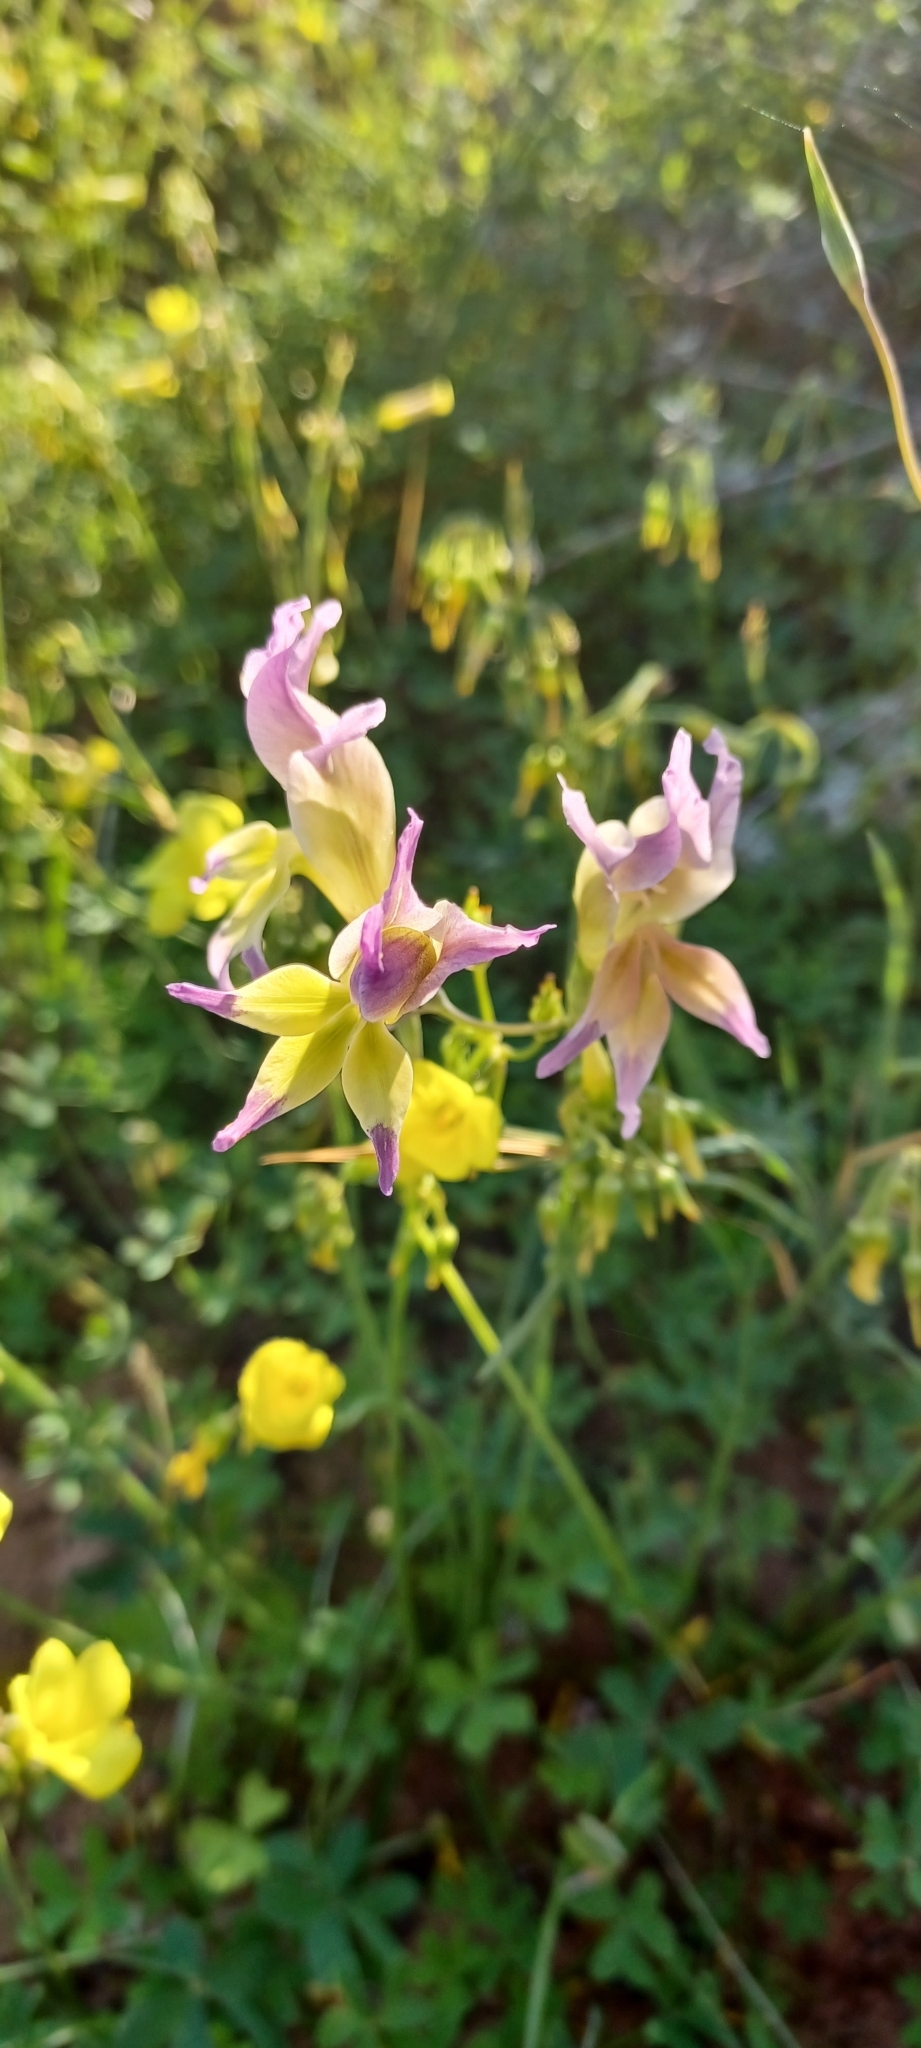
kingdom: Plantae
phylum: Tracheophyta
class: Liliopsida
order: Asparagales
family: Iridaceae
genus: Gladiolus
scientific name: Gladiolus venustus
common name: Purple kalkoentjie
